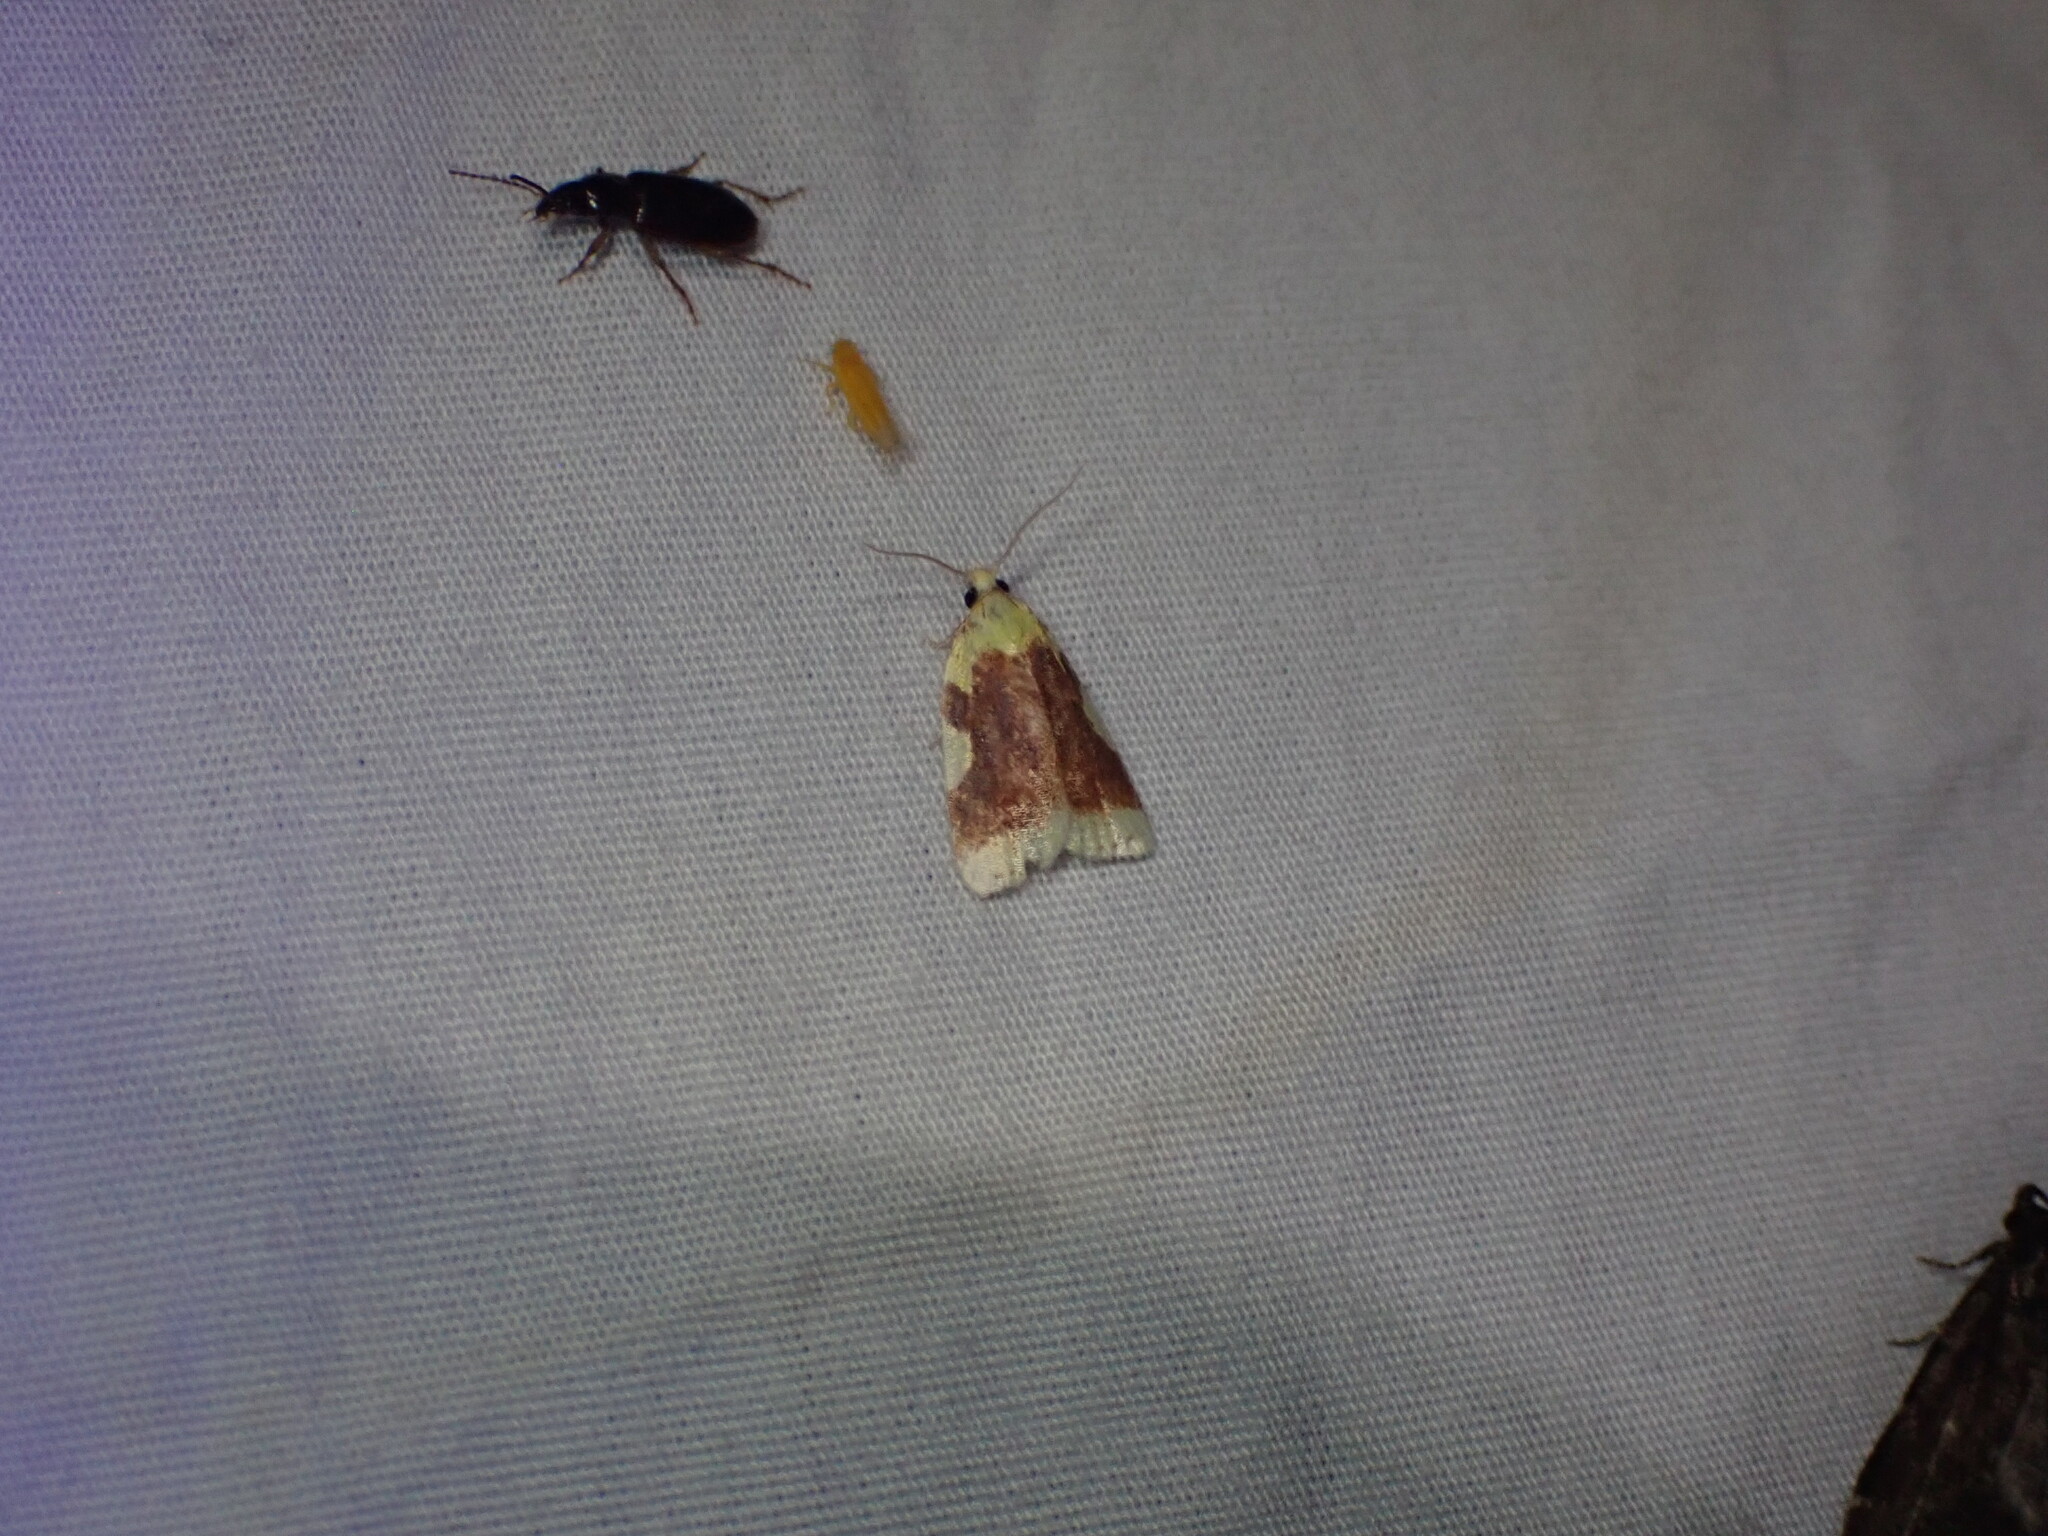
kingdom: Animalia
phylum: Arthropoda
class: Insecta
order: Coleoptera
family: Carabidae
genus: Stenolophus
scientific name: Stenolophus ochropezus
